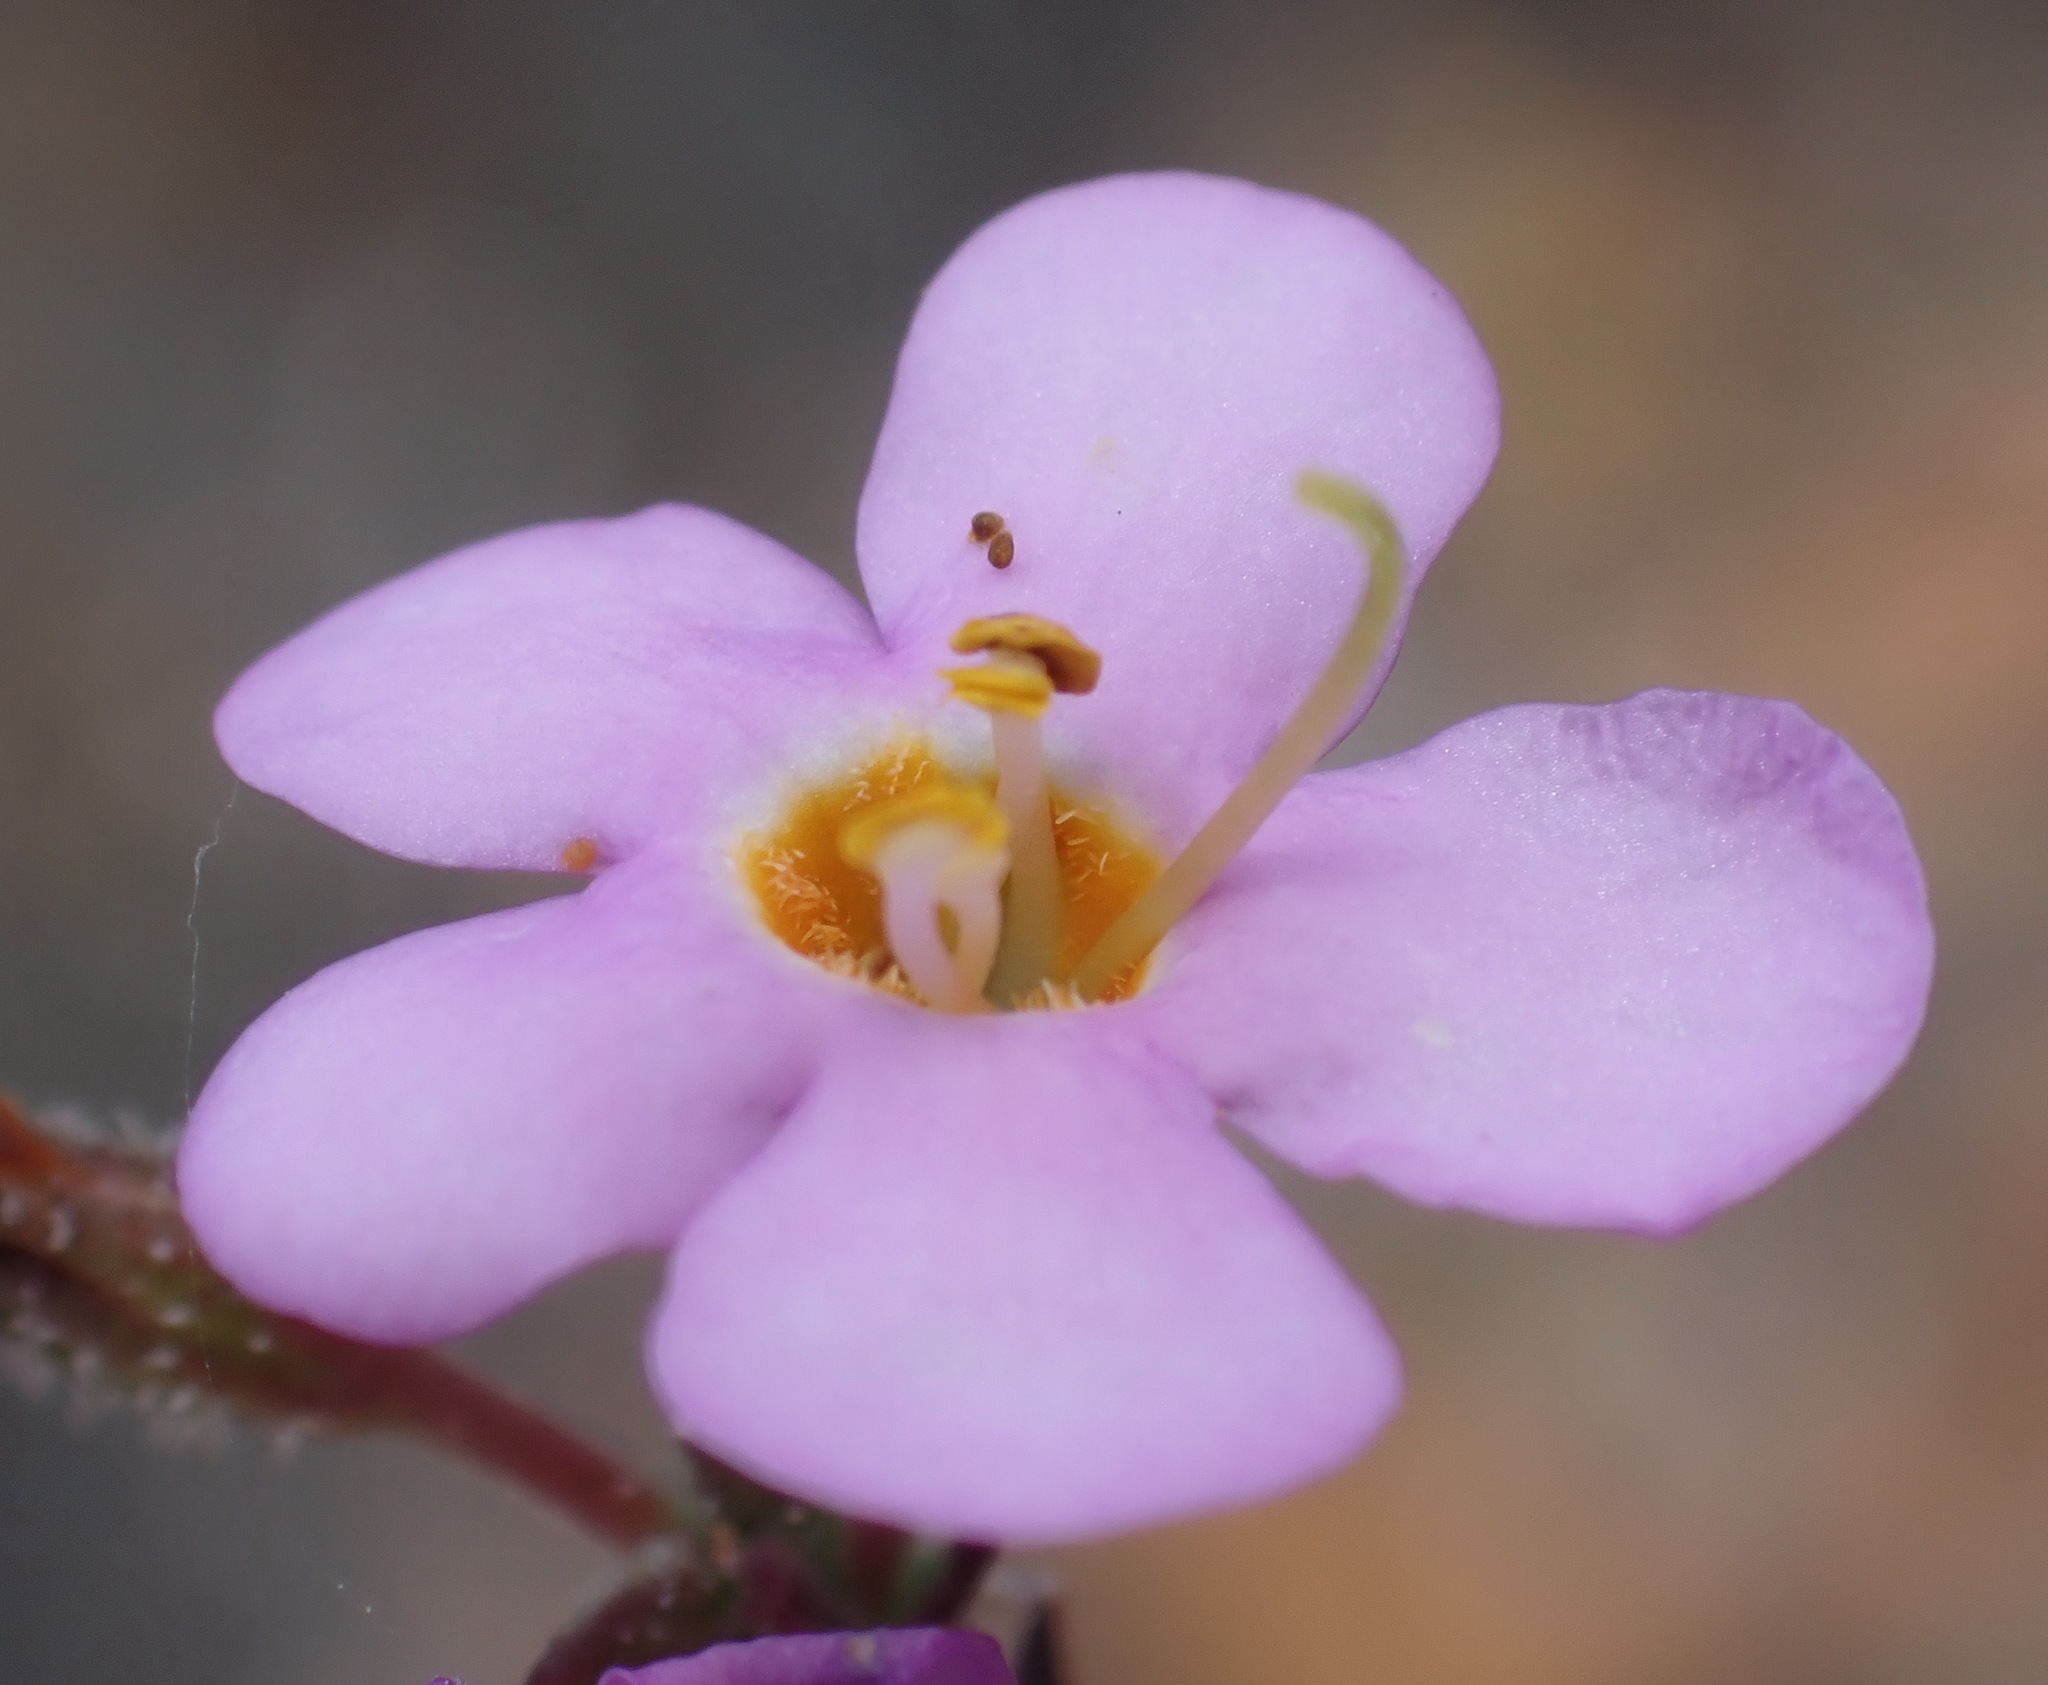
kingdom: Plantae
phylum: Tracheophyta
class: Magnoliopsida
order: Lamiales
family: Scrophulariaceae
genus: Chaenostoma
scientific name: Chaenostoma revolutum
